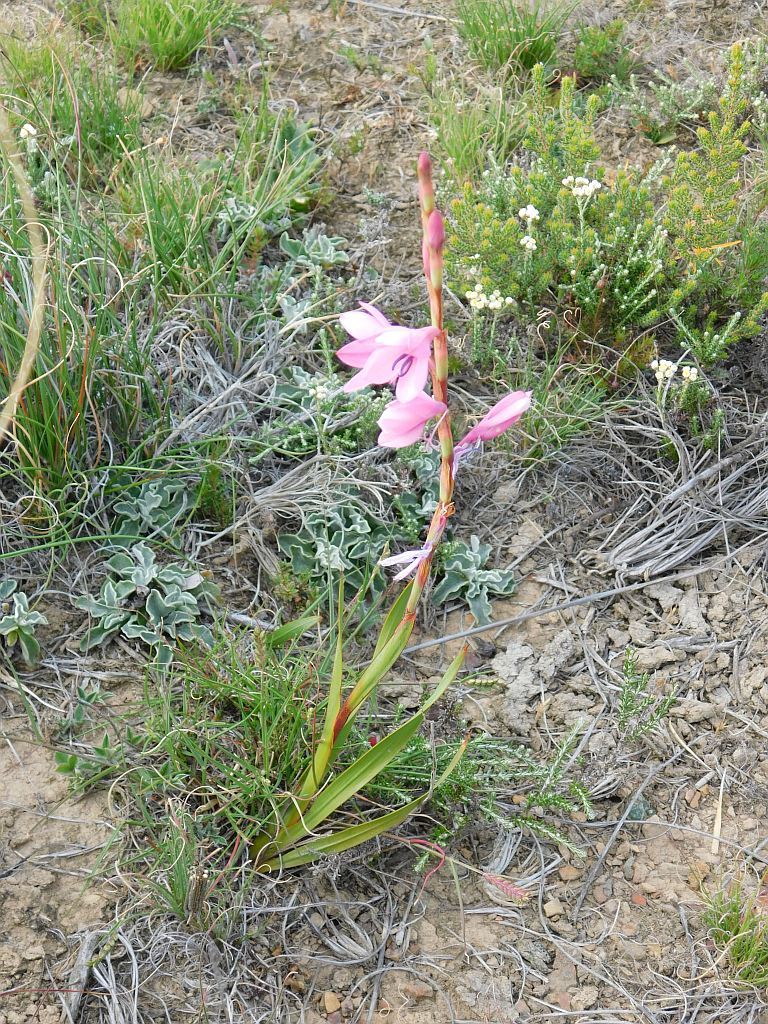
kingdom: Plantae
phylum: Tracheophyta
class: Liliopsida
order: Asparagales
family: Iridaceae
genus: Watsonia
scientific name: Watsonia laccata
